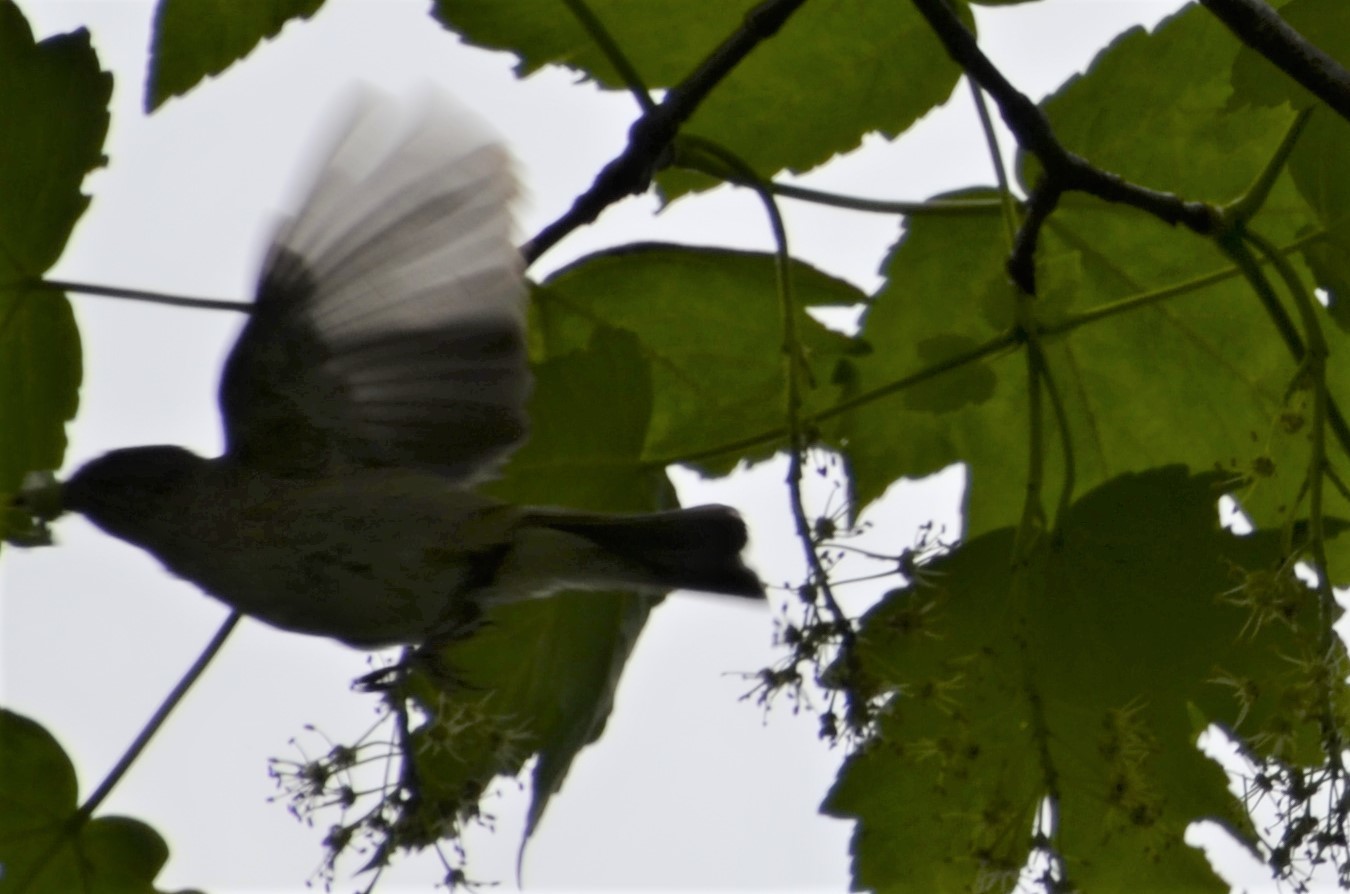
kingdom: Animalia
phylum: Chordata
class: Aves
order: Passeriformes
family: Phylloscopidae
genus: Phylloscopus
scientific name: Phylloscopus collybita
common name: Common chiffchaff
